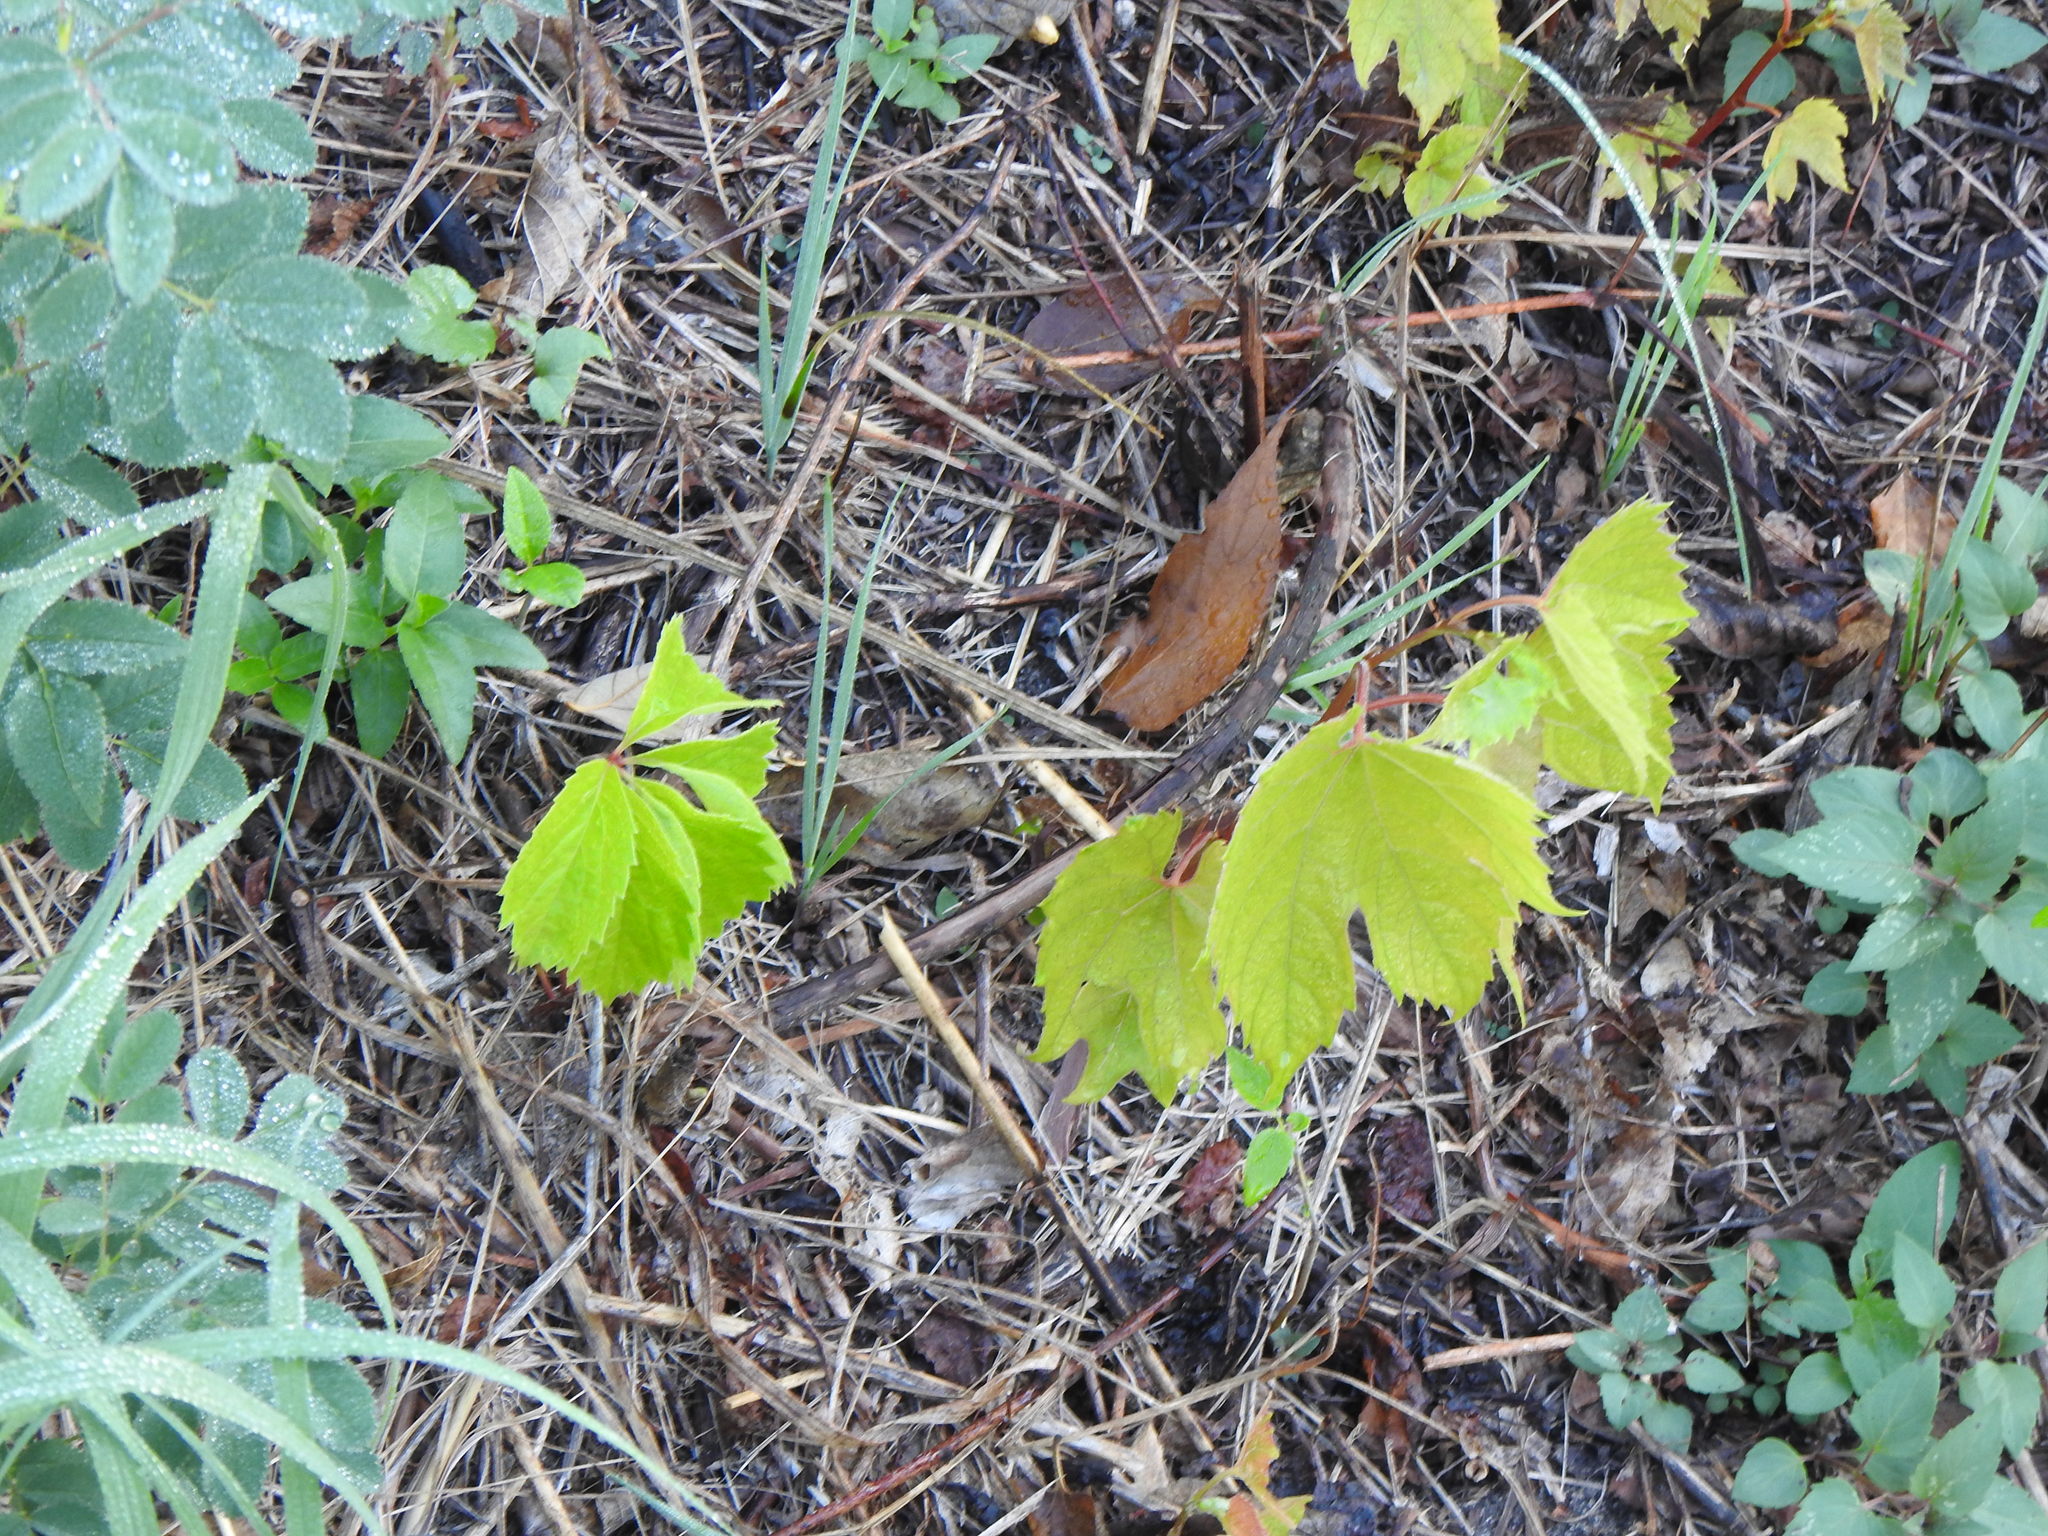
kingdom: Plantae
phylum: Tracheophyta
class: Magnoliopsida
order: Vitales
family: Vitaceae
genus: Vitis
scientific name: Vitis riparia
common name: Frost grape
